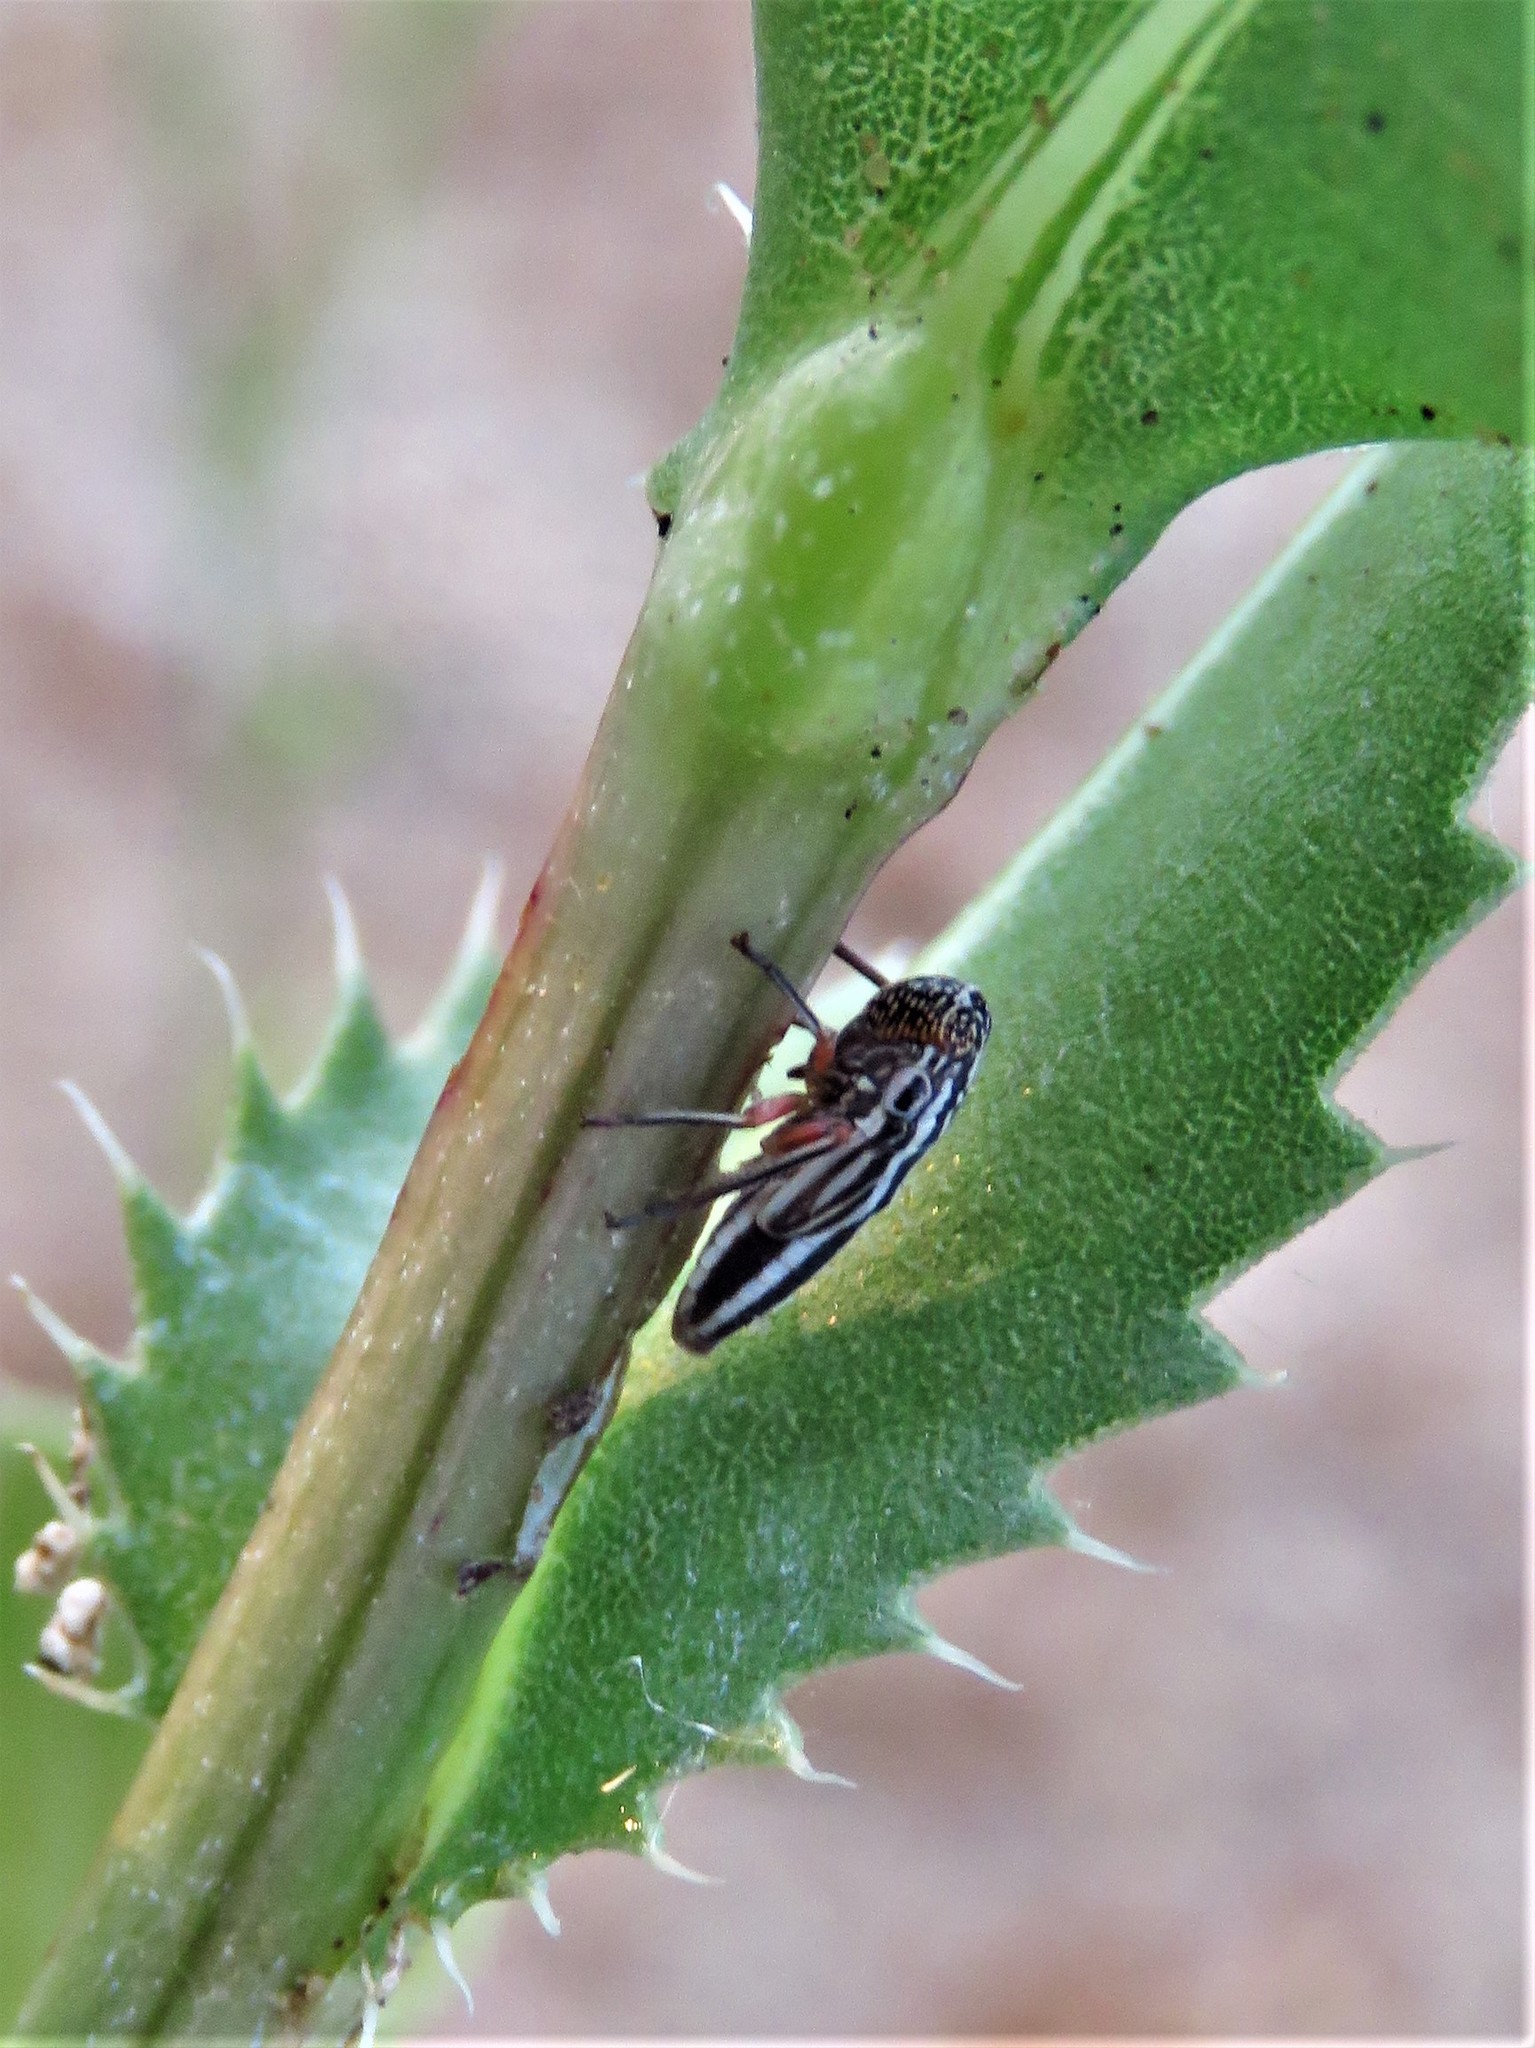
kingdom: Animalia
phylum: Arthropoda
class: Insecta
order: Hemiptera
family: Cicadellidae
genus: Cuerna
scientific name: Cuerna costalis
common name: Lateral-lined sharpshooter
